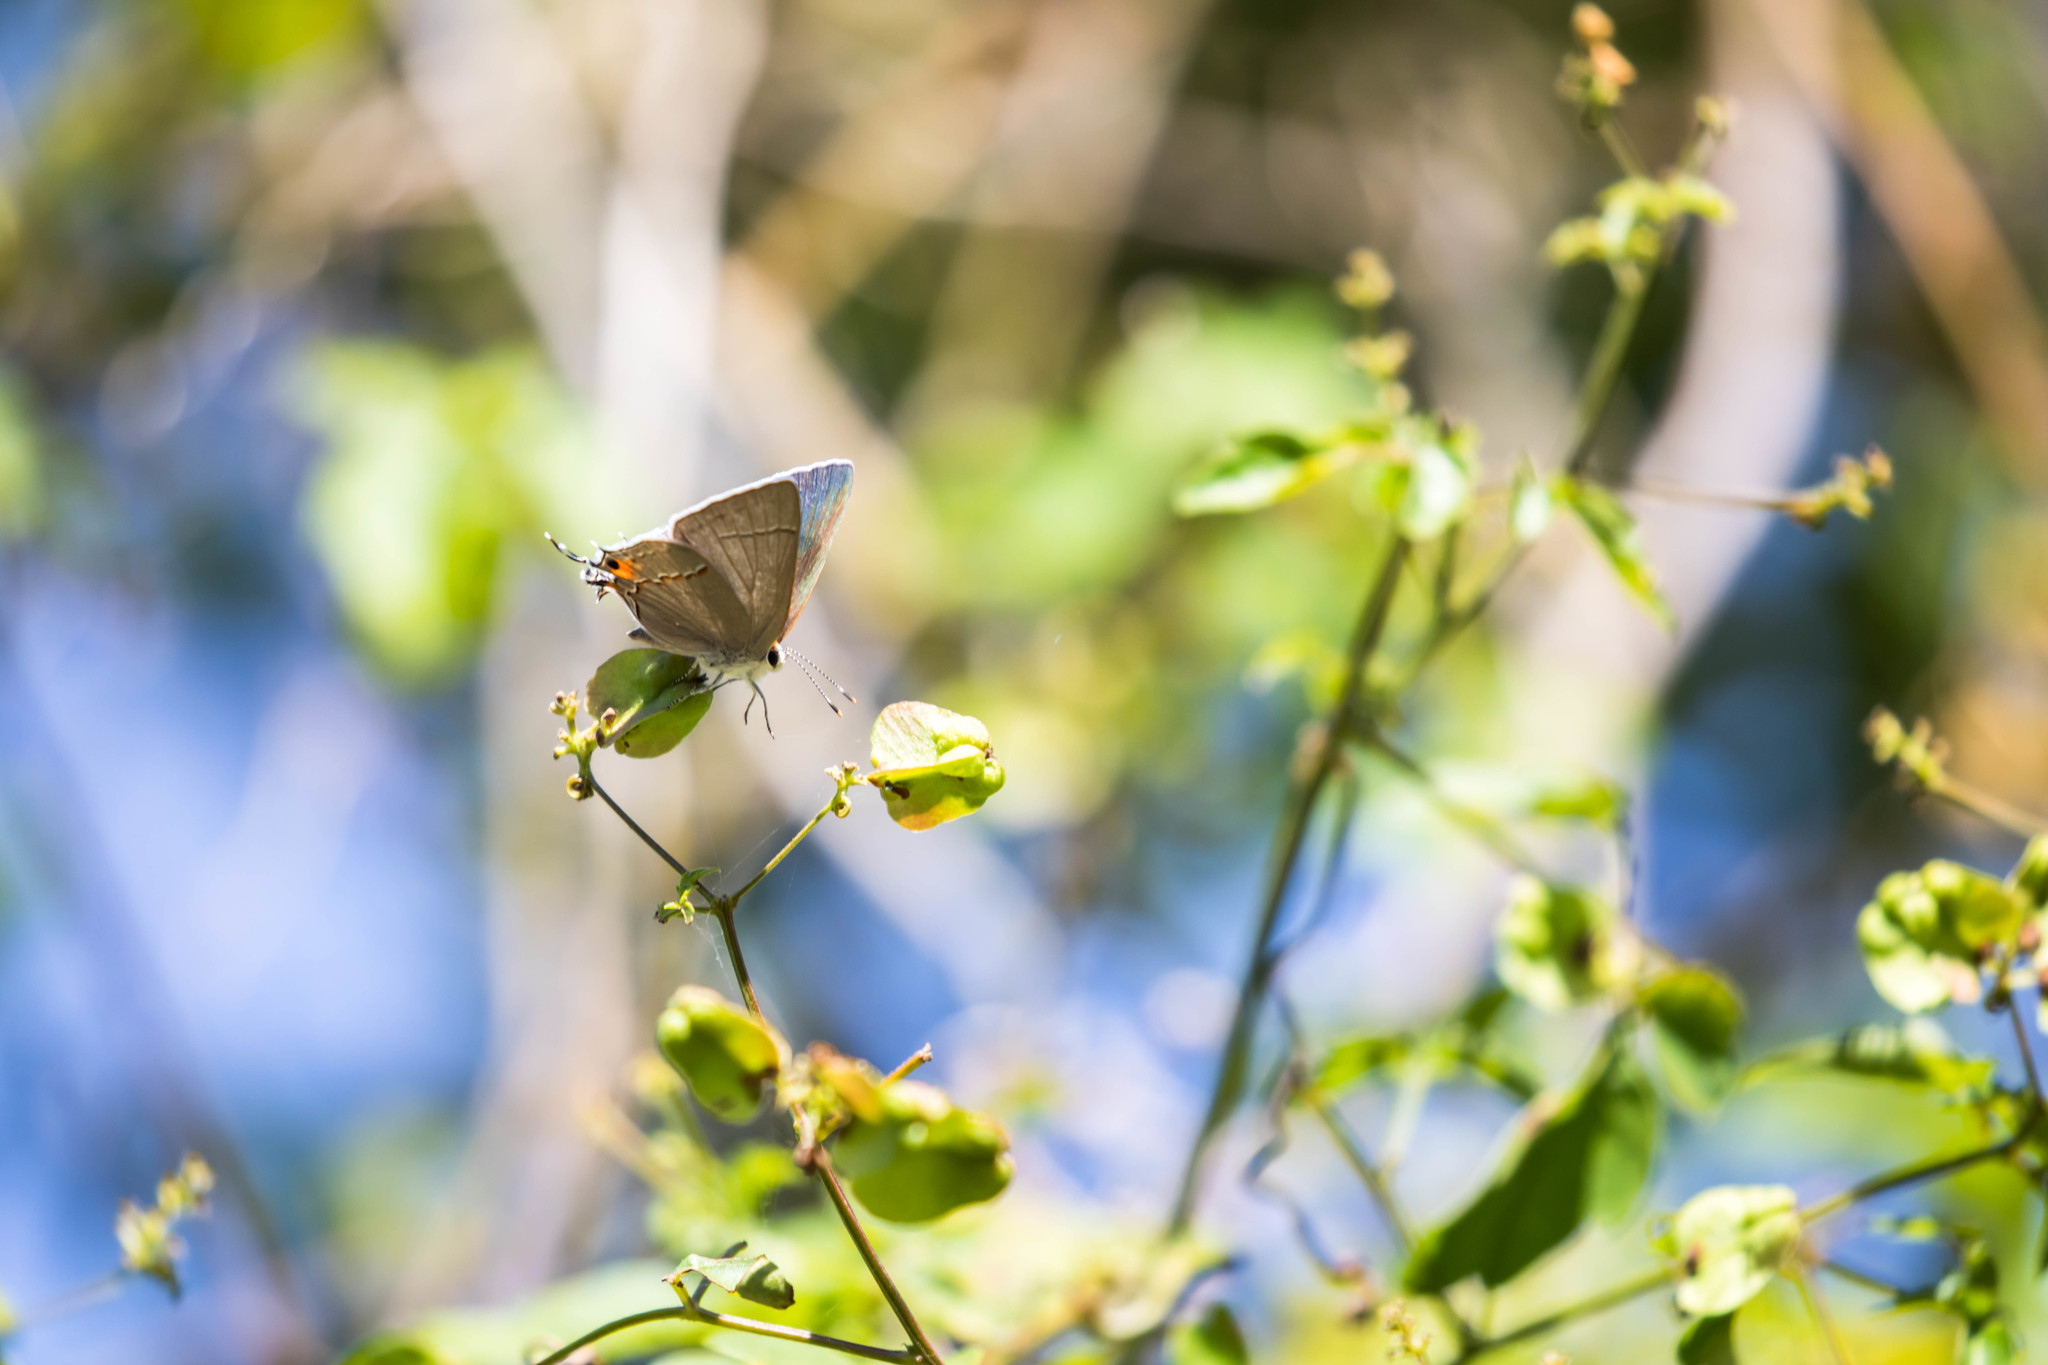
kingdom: Animalia
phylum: Arthropoda
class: Insecta
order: Lepidoptera
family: Lycaenidae
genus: Strymon
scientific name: Strymon melinus
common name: Gray hairstreak
